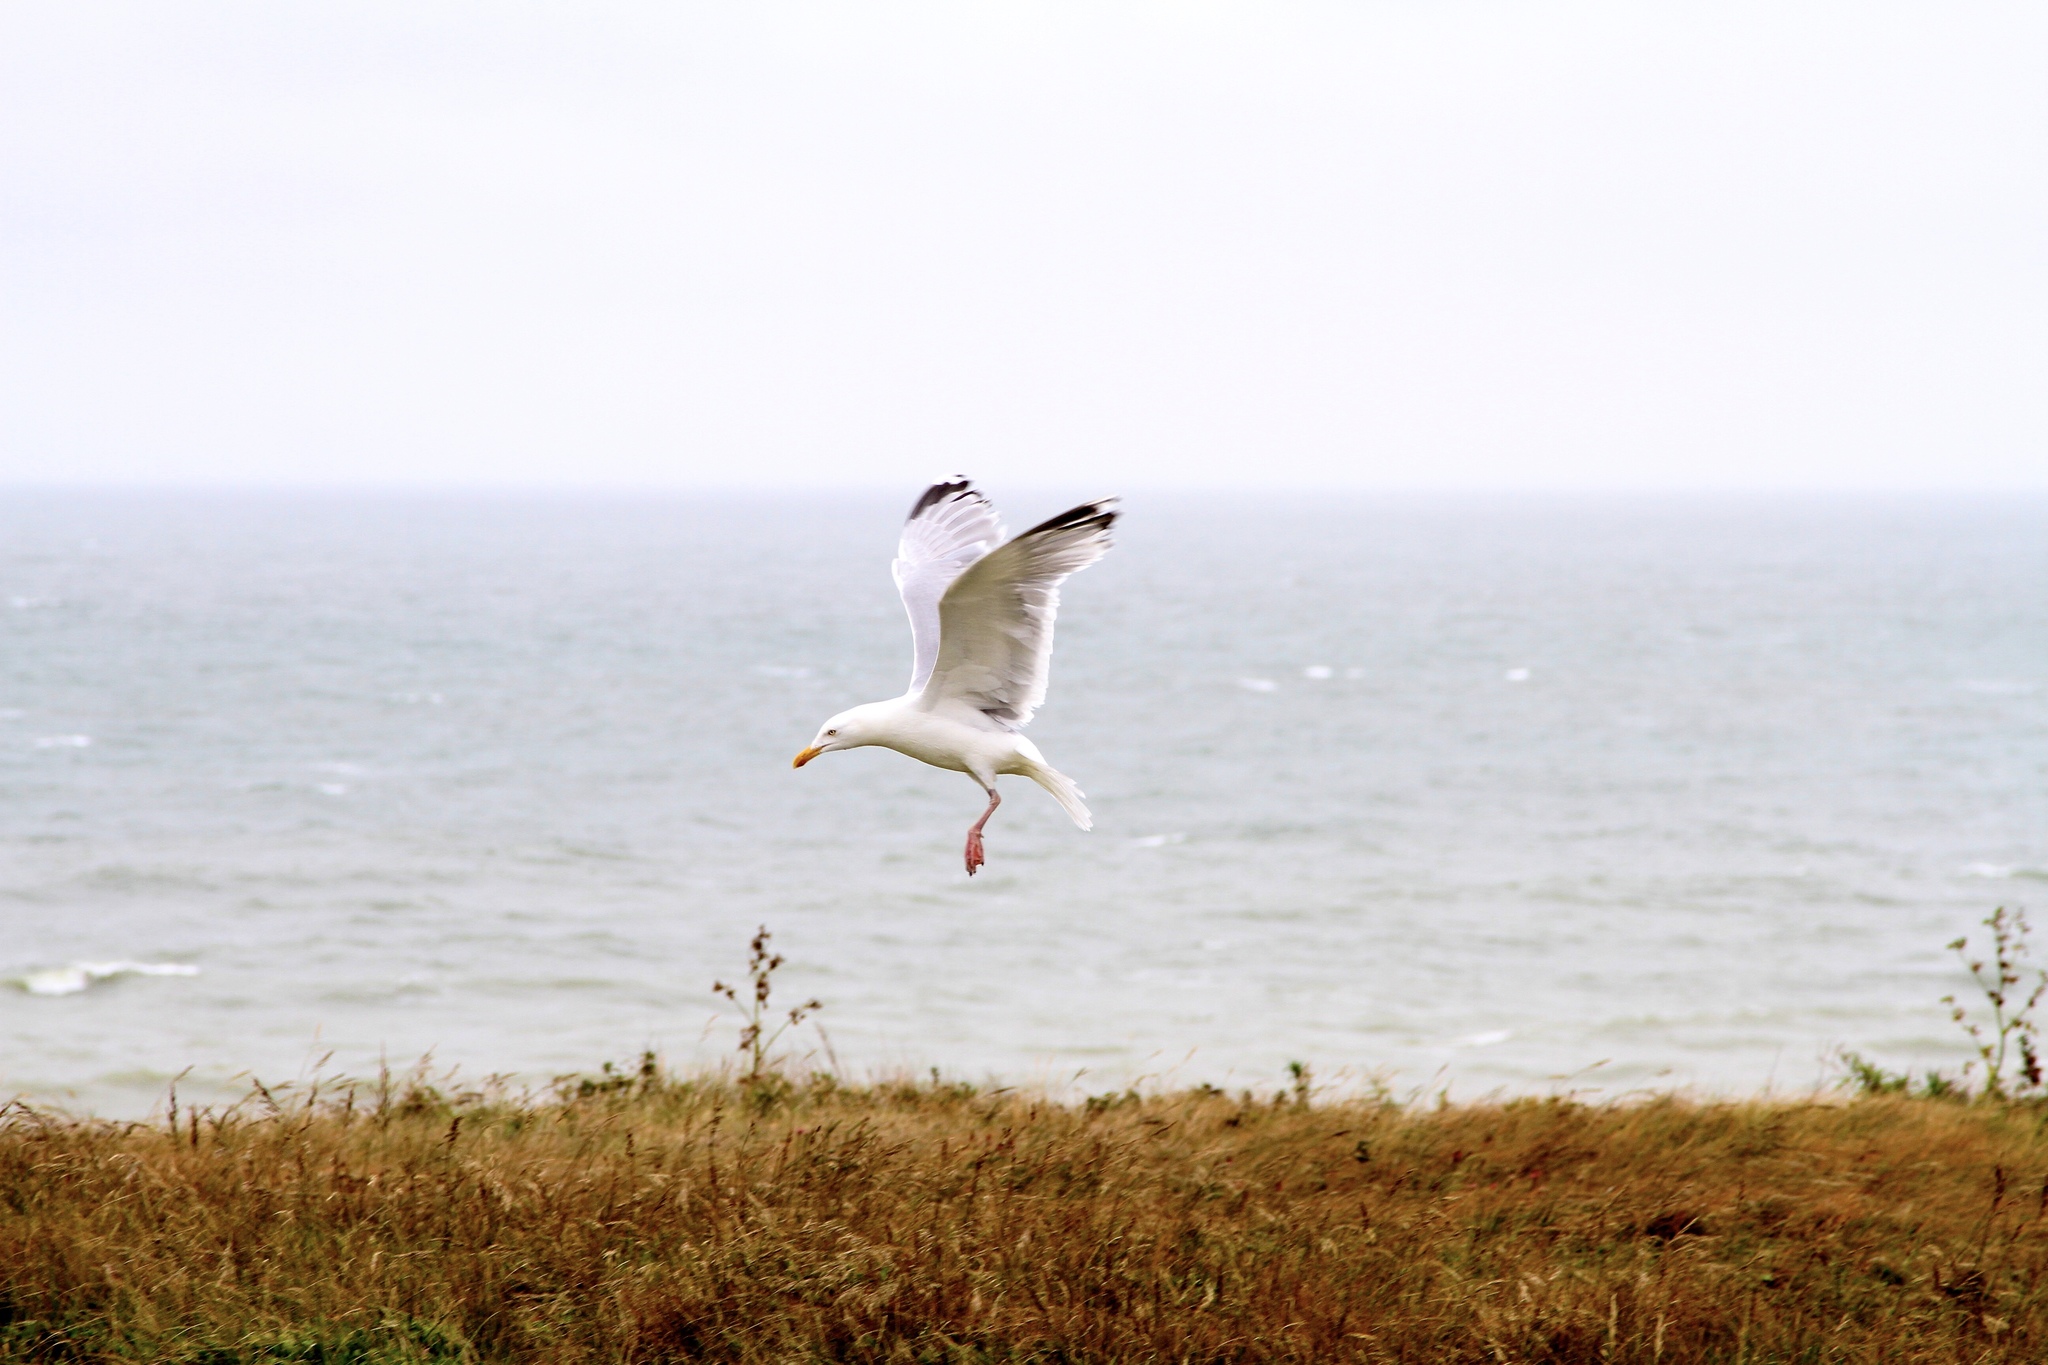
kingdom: Animalia
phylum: Chordata
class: Aves
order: Charadriiformes
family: Laridae
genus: Larus
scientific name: Larus argentatus
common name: Herring gull
